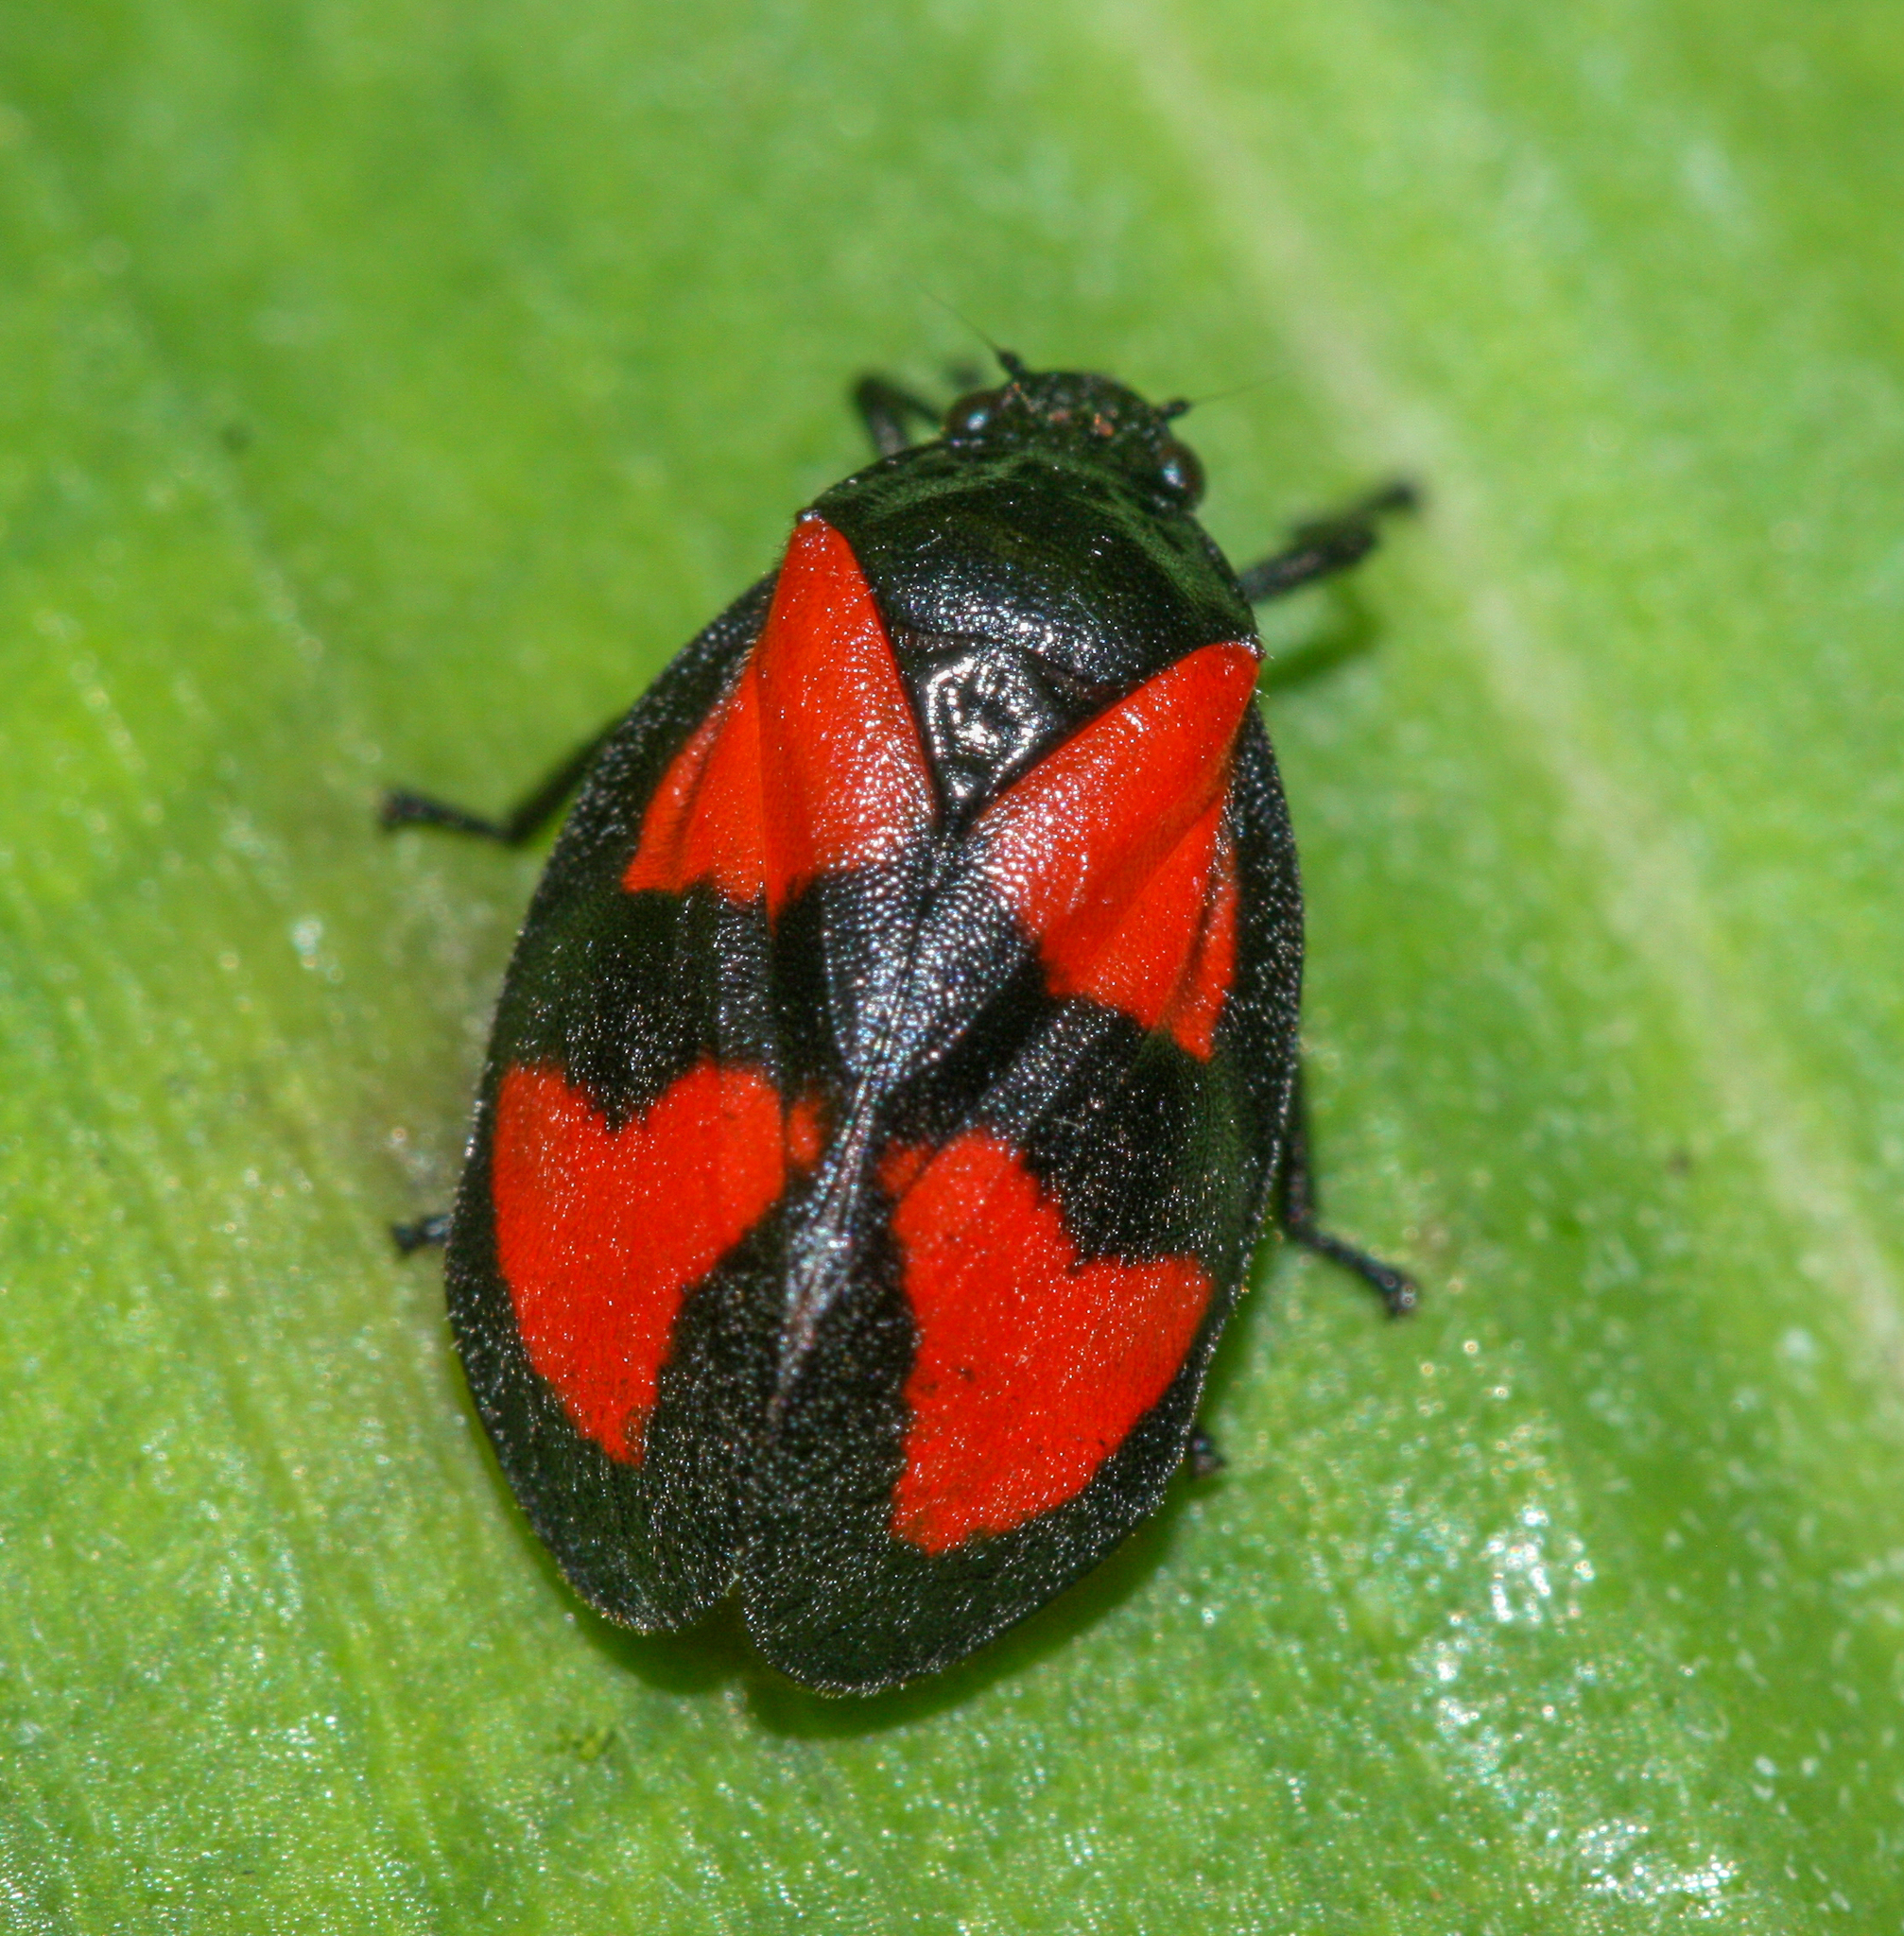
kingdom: Animalia
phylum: Arthropoda
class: Insecta
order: Hemiptera
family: Cercopidae
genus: Mahanarva
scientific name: Mahanarva cruxminor
